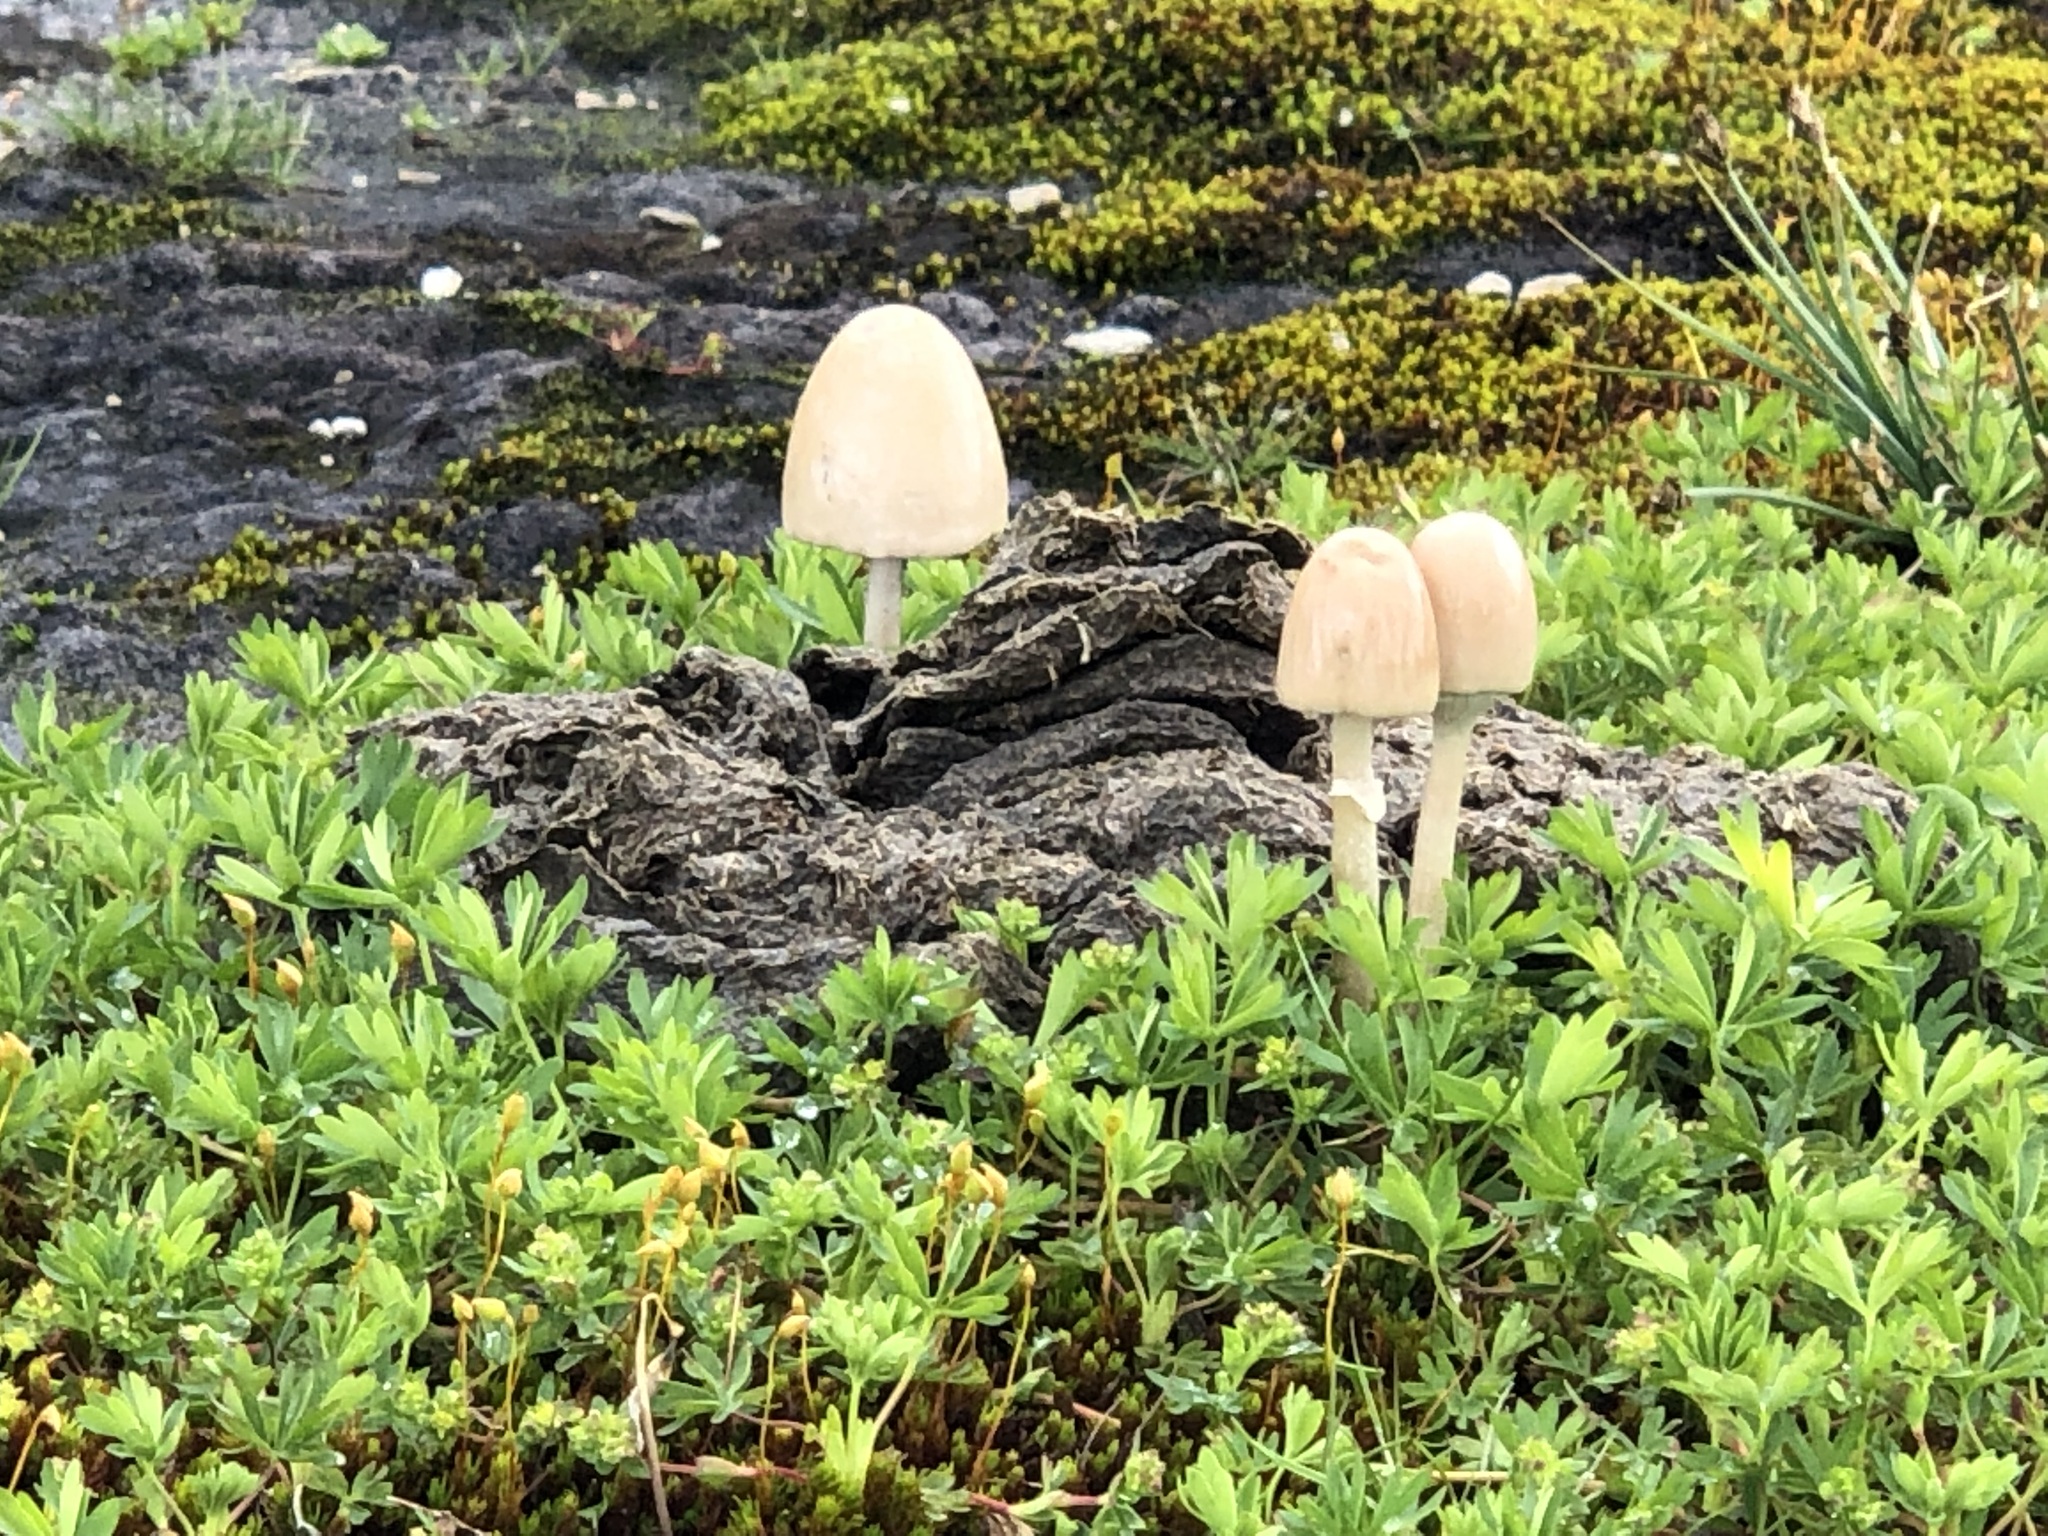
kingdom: Fungi
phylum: Basidiomycota
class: Agaricomycetes
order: Agaricales
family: Bolbitiaceae
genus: Panaeolus
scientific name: Panaeolus semiovatus
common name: Shiny mottlegill
